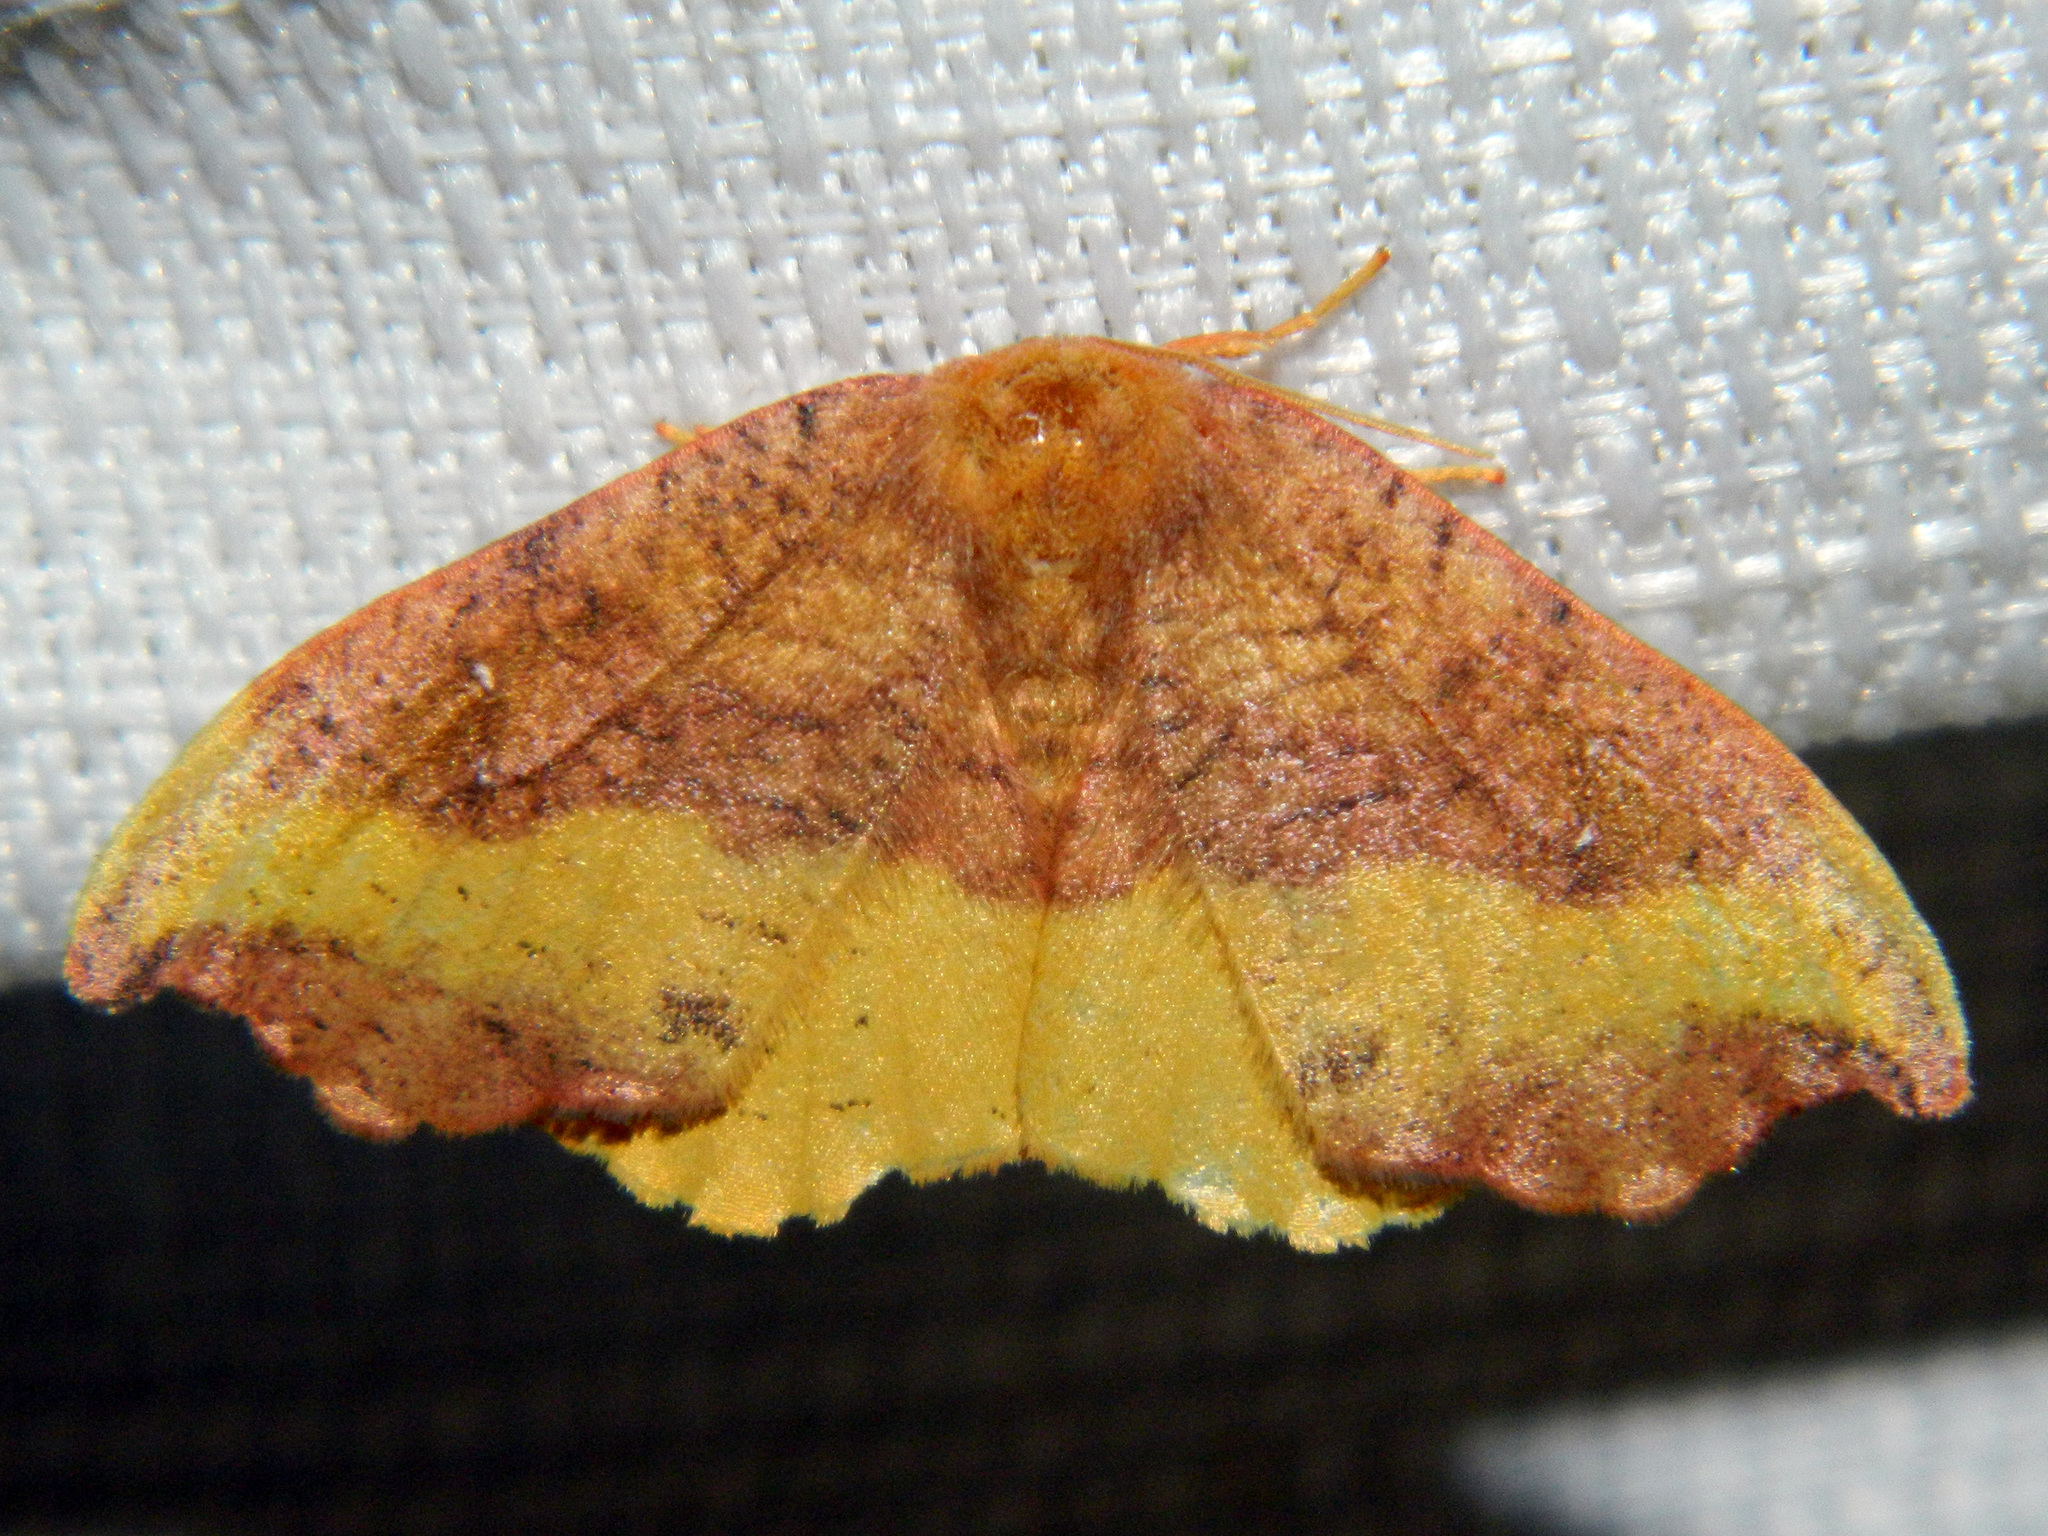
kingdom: Animalia
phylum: Arthropoda
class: Insecta
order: Lepidoptera
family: Drepanidae
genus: Oreta
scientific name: Oreta rosea
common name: Rose hooktip
